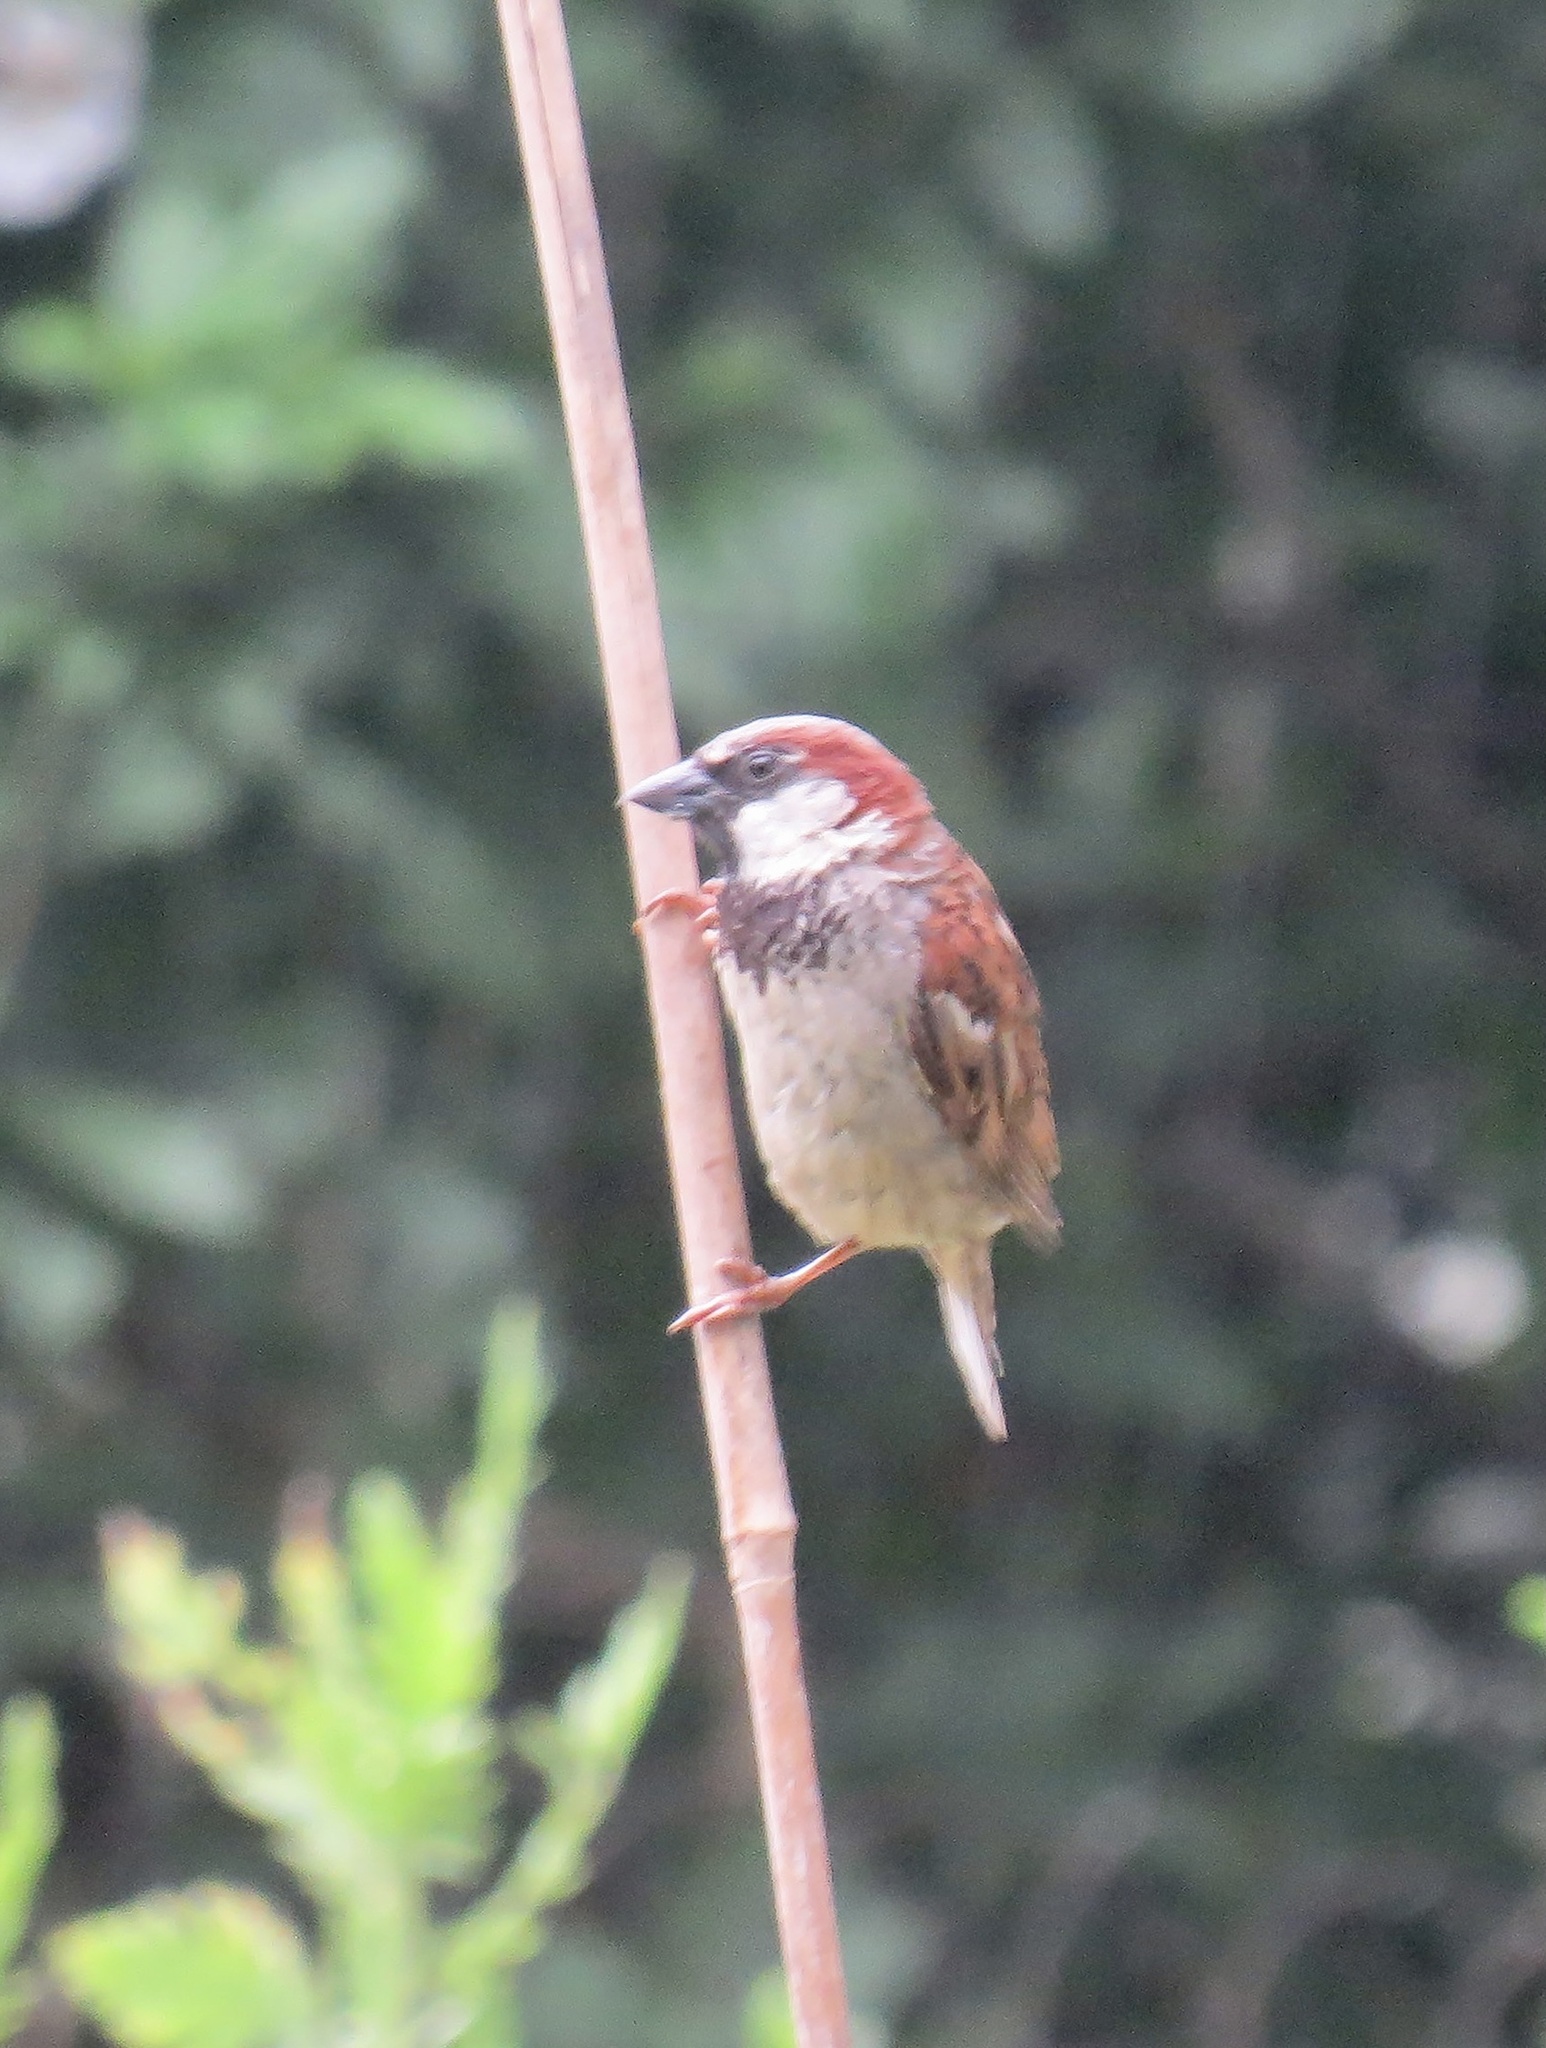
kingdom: Animalia
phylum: Chordata
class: Aves
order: Passeriformes
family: Passeridae
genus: Passer
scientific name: Passer domesticus
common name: House sparrow
